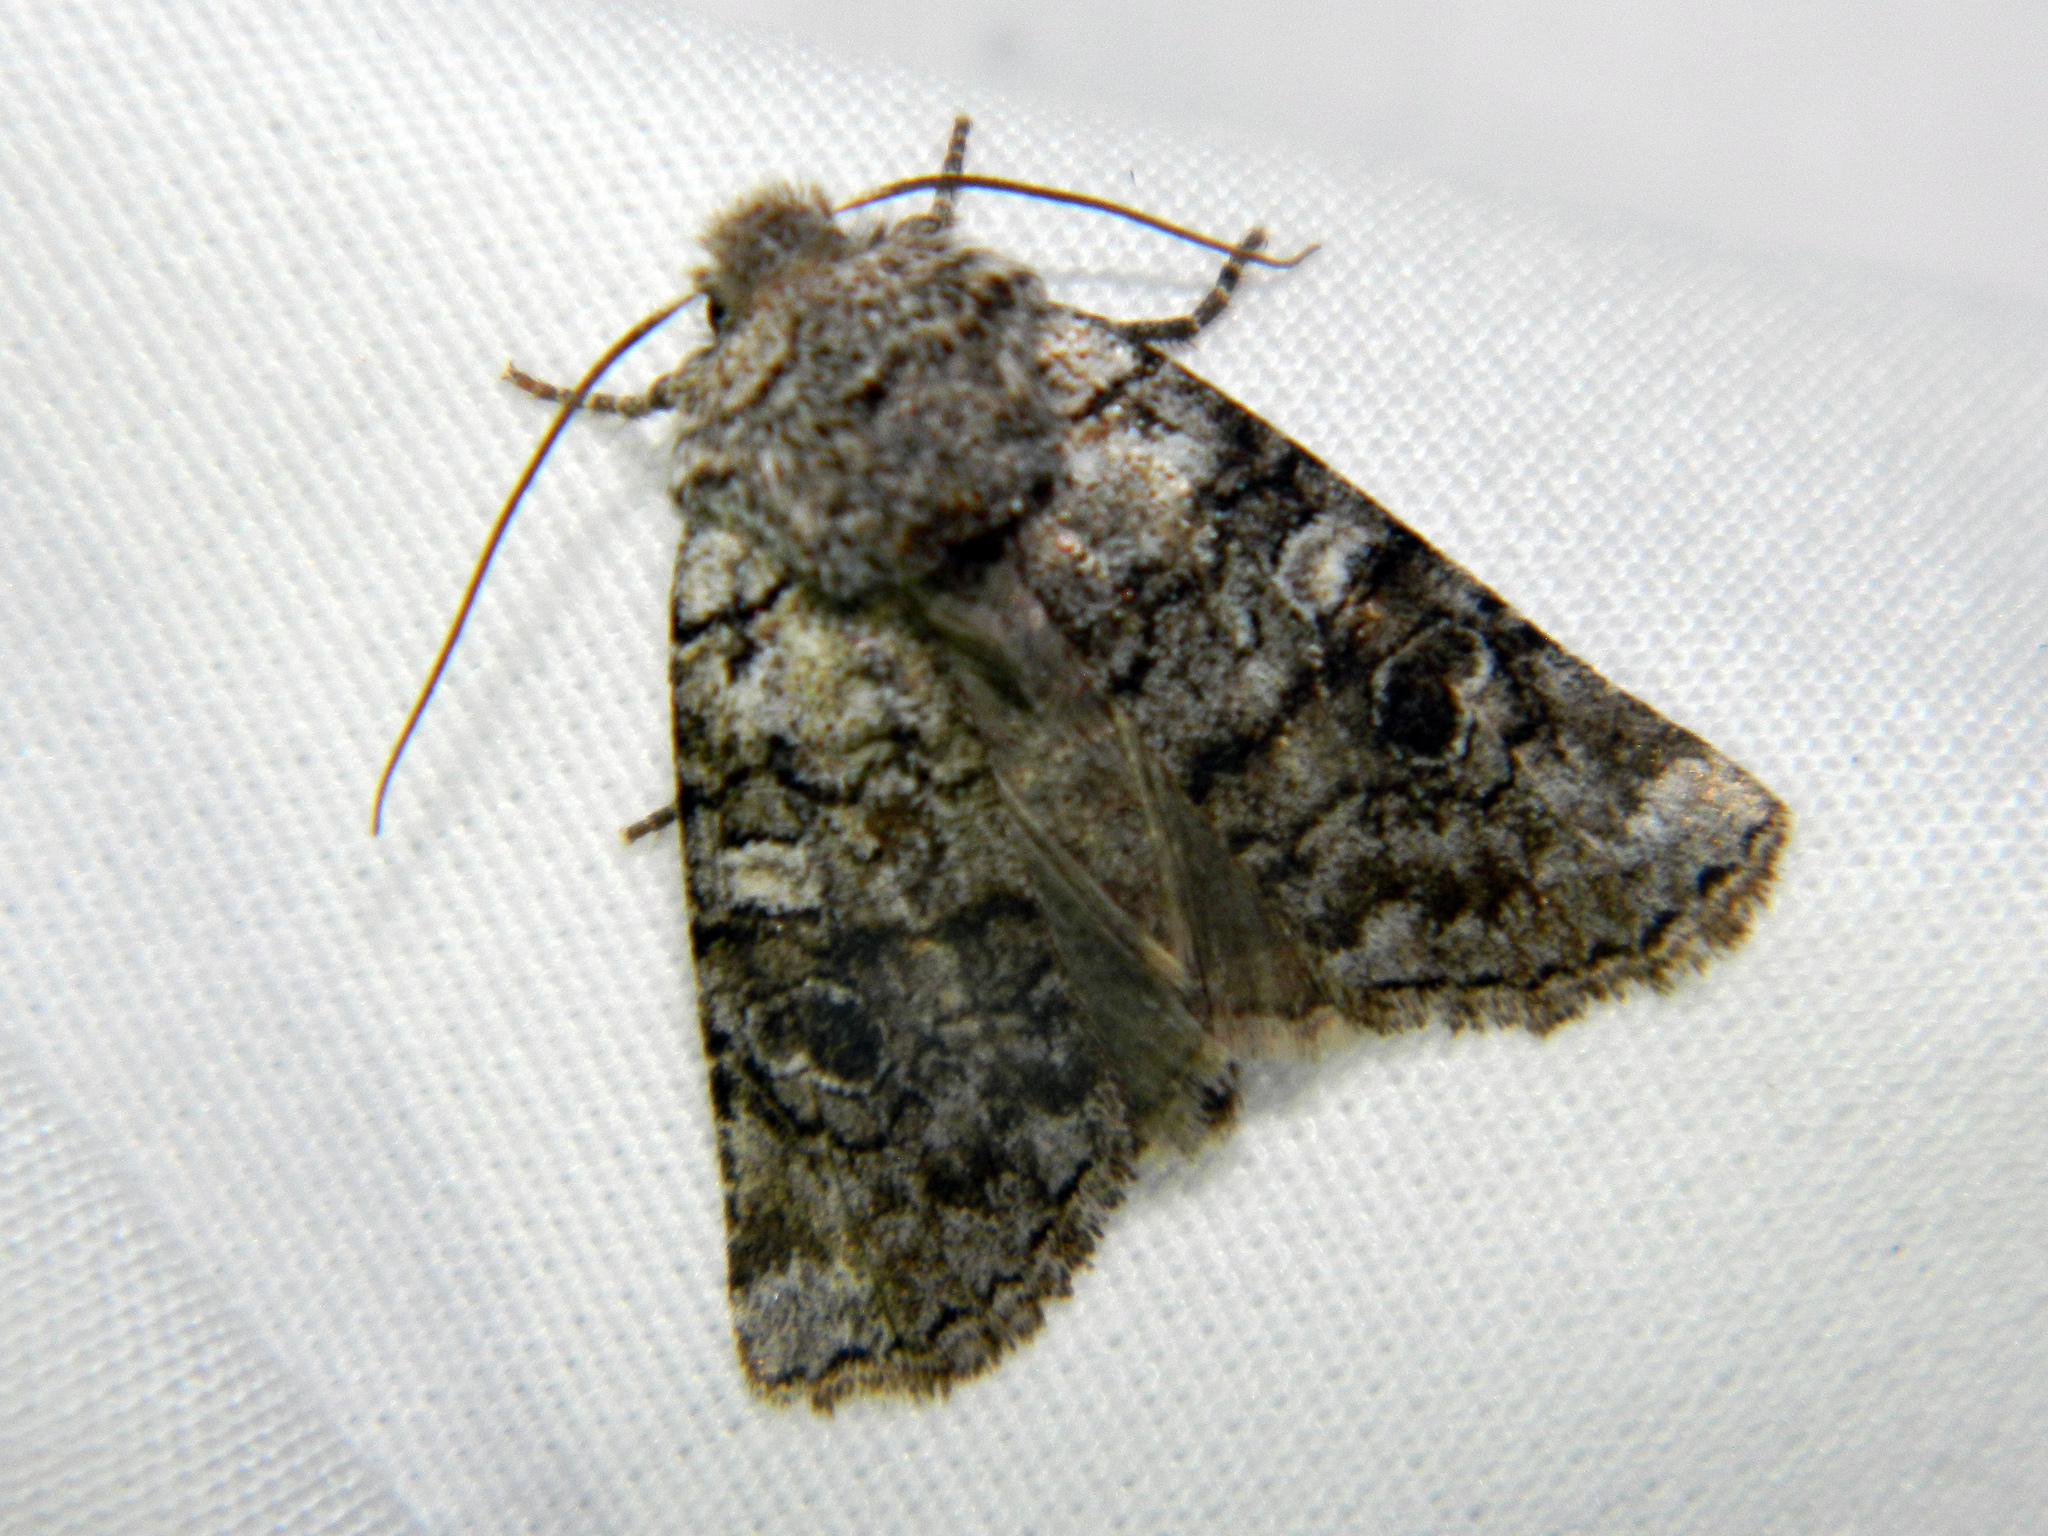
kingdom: Animalia
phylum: Arthropoda
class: Insecta
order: Lepidoptera
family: Noctuidae
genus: Litholomia
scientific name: Litholomia napaea
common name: False pinion moth
